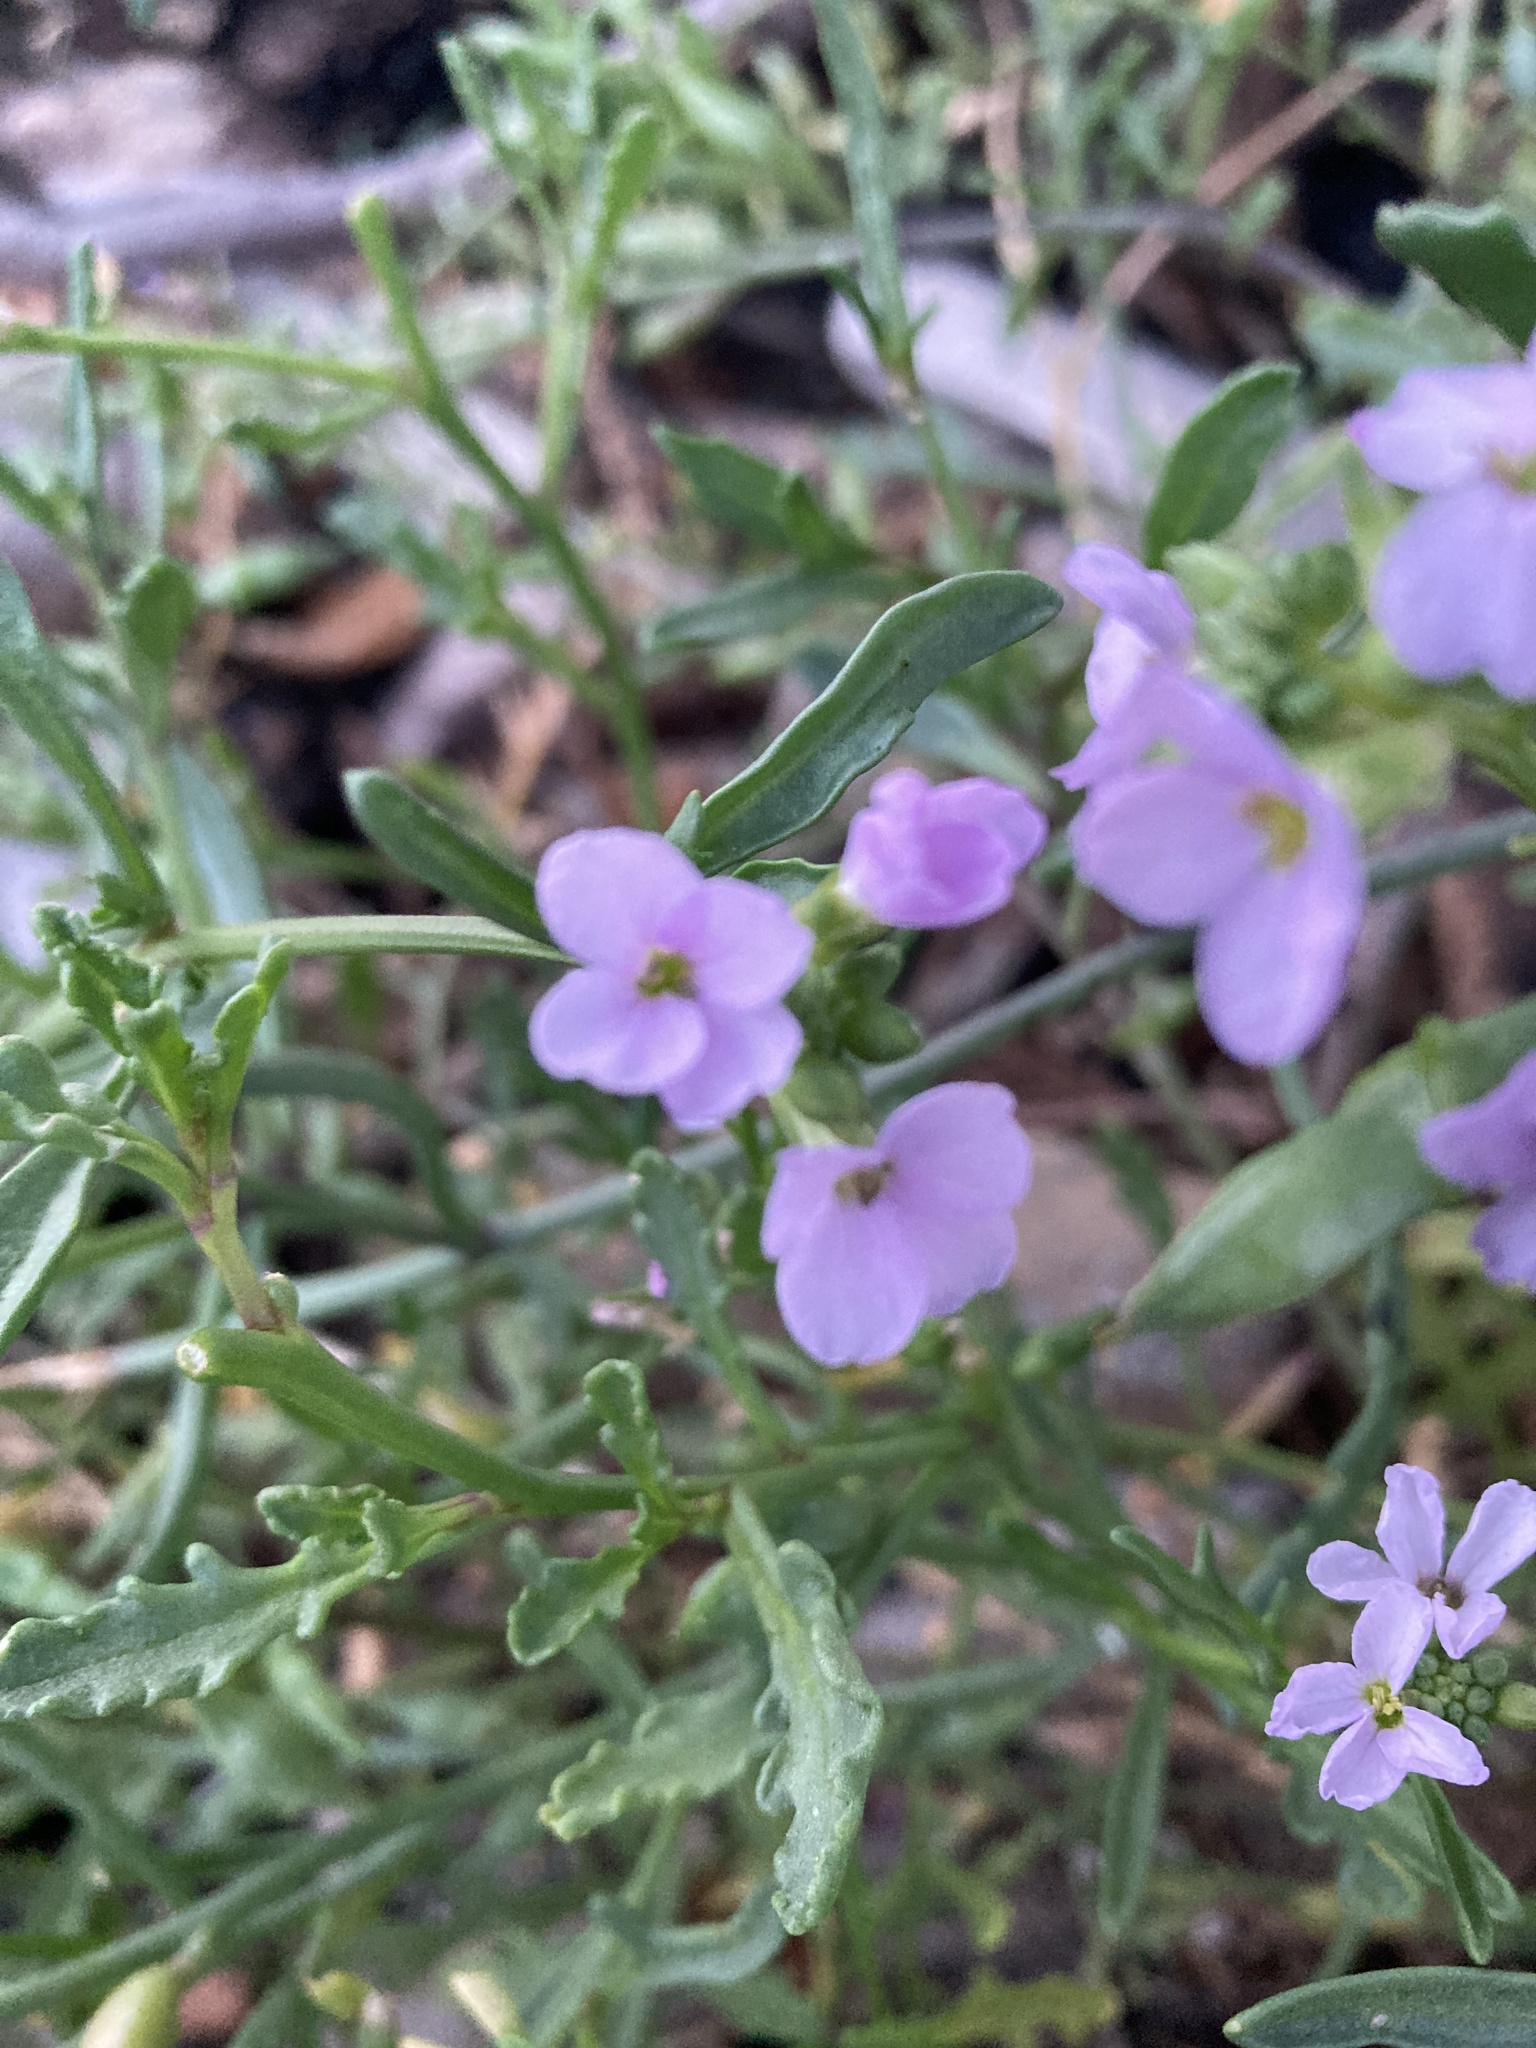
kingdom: Plantae
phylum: Tracheophyta
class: Magnoliopsida
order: Brassicales
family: Brassicaceae
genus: Cakile
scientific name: Cakile maritima
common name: Sea rocket
